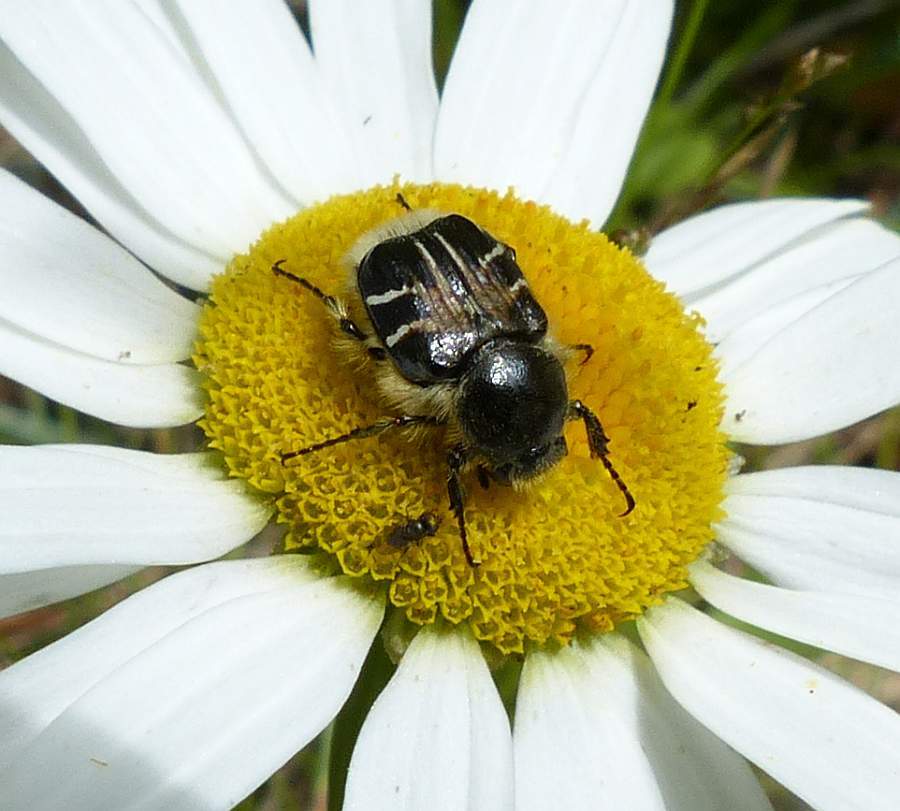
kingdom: Animalia
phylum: Arthropoda
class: Insecta
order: Coleoptera
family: Scarabaeidae
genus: Trichiotinus
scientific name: Trichiotinus assimilis
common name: Bee-mimic beetle
